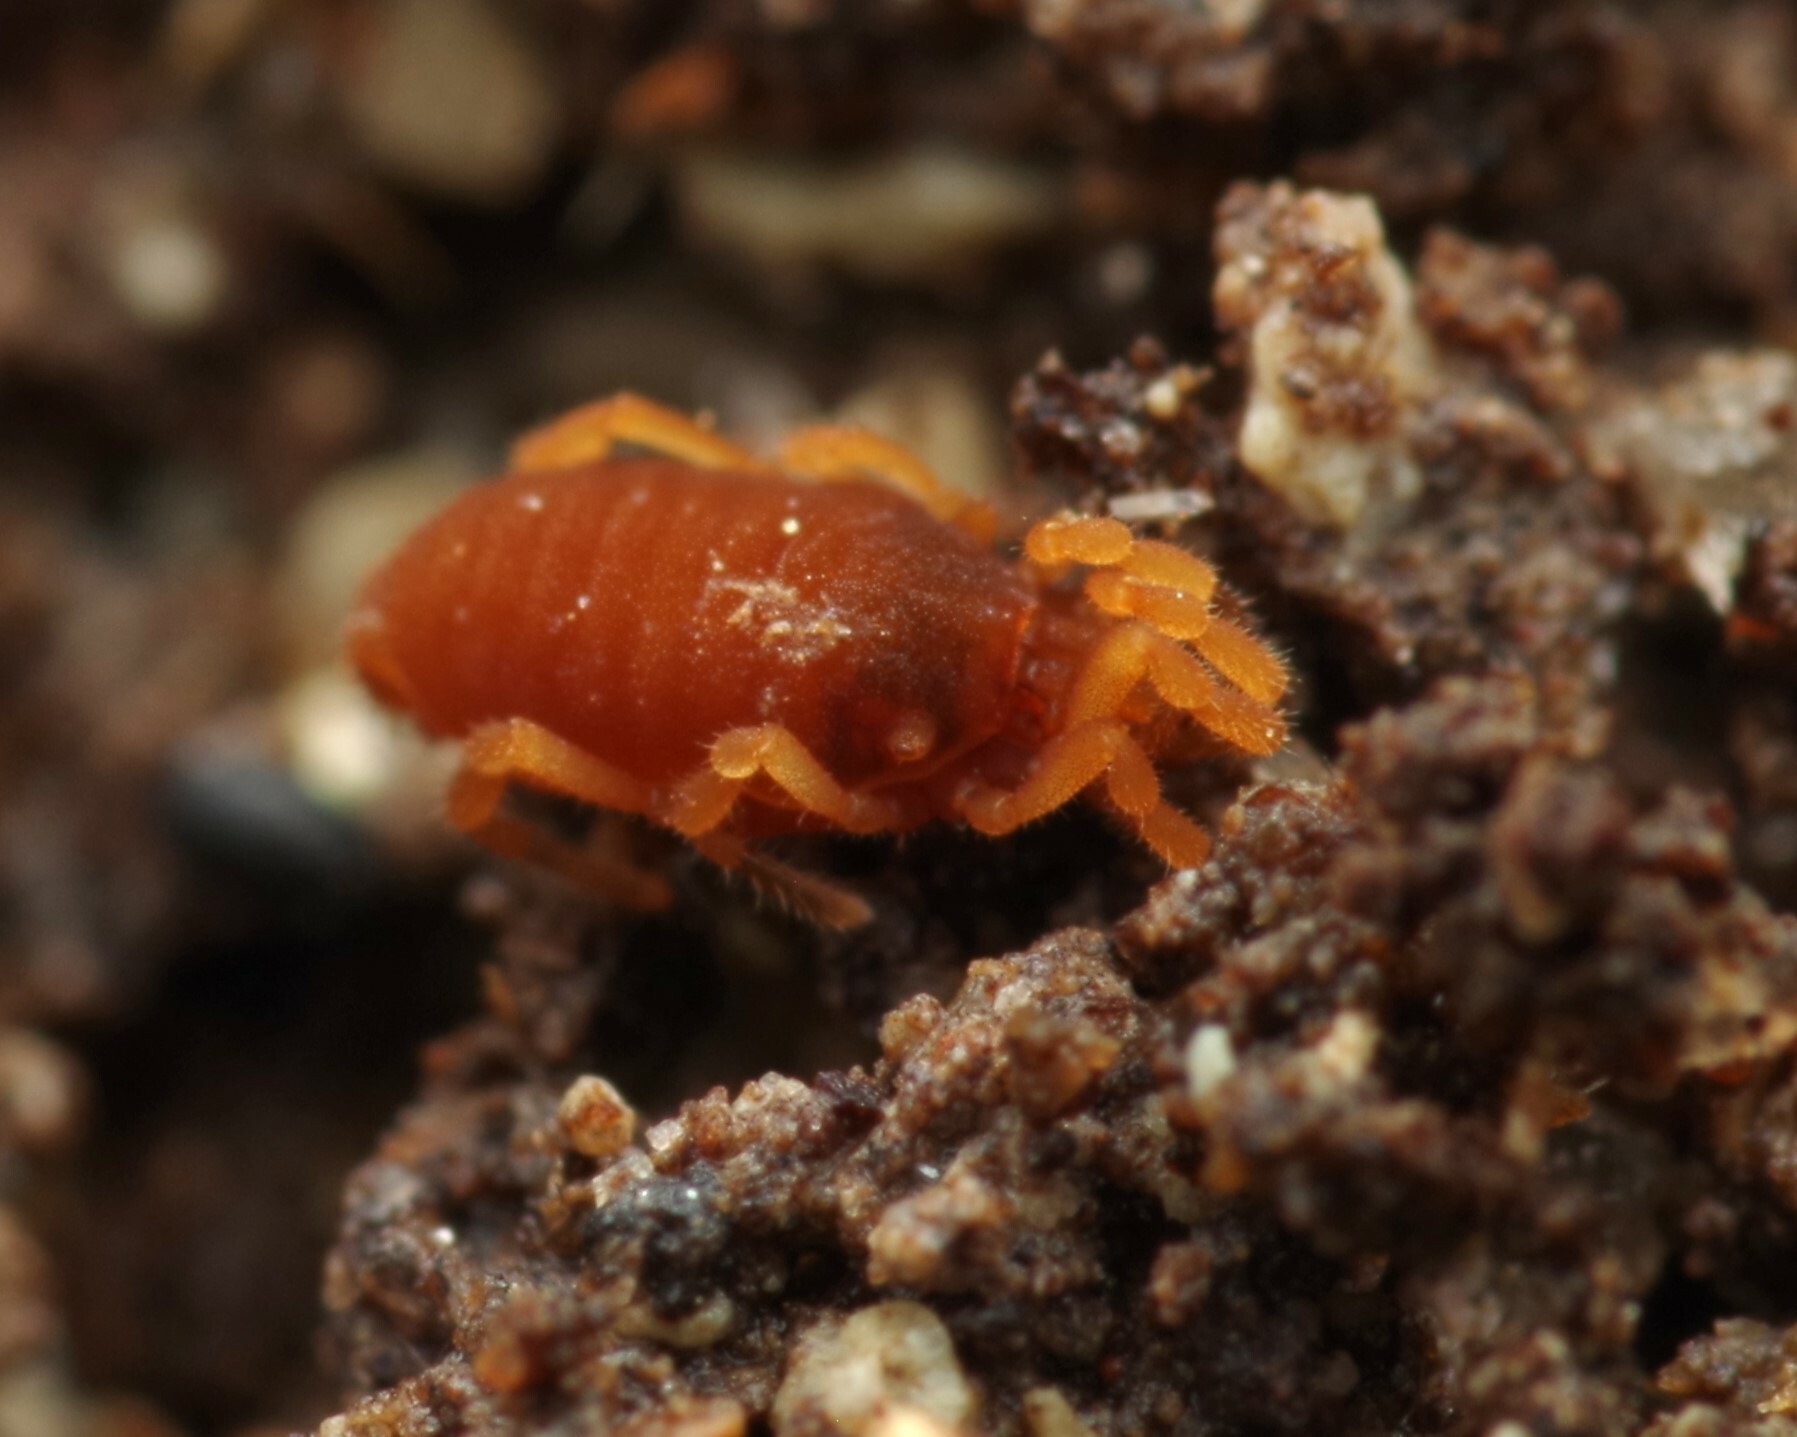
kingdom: Animalia
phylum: Arthropoda
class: Arachnida
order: Opiliones
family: Sironidae
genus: Siro
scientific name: Siro rubens
